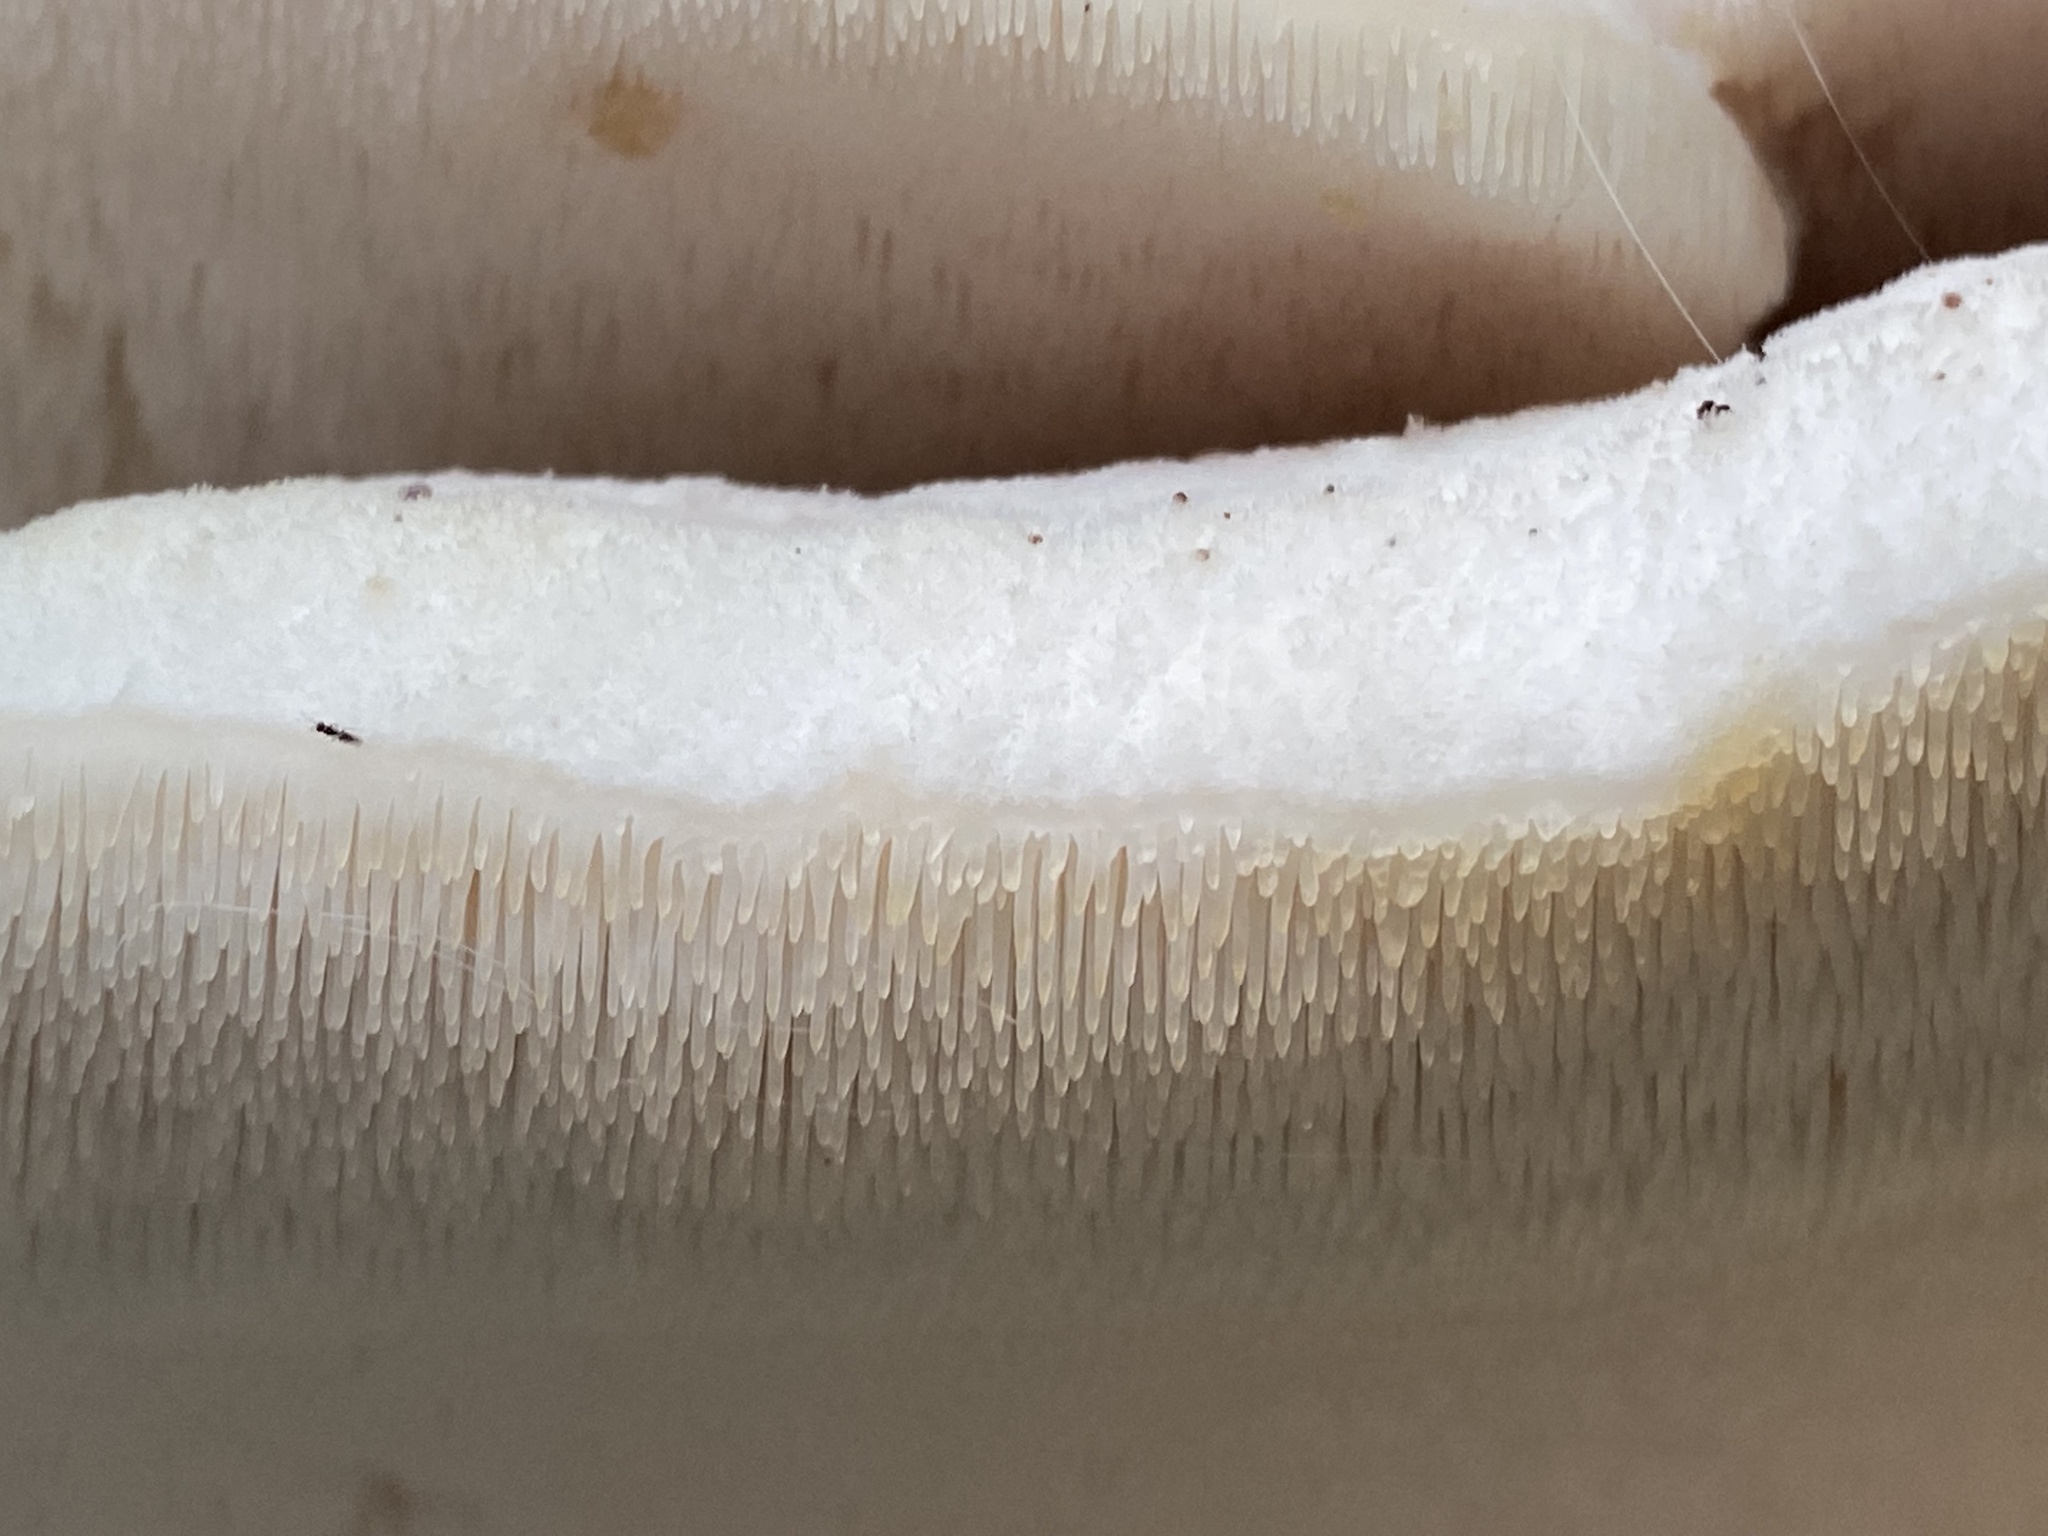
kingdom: Fungi
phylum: Basidiomycota
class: Agaricomycetes
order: Polyporales
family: Meruliaceae
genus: Climacodon
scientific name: Climacodon septentrionalis
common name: Northern tooth
